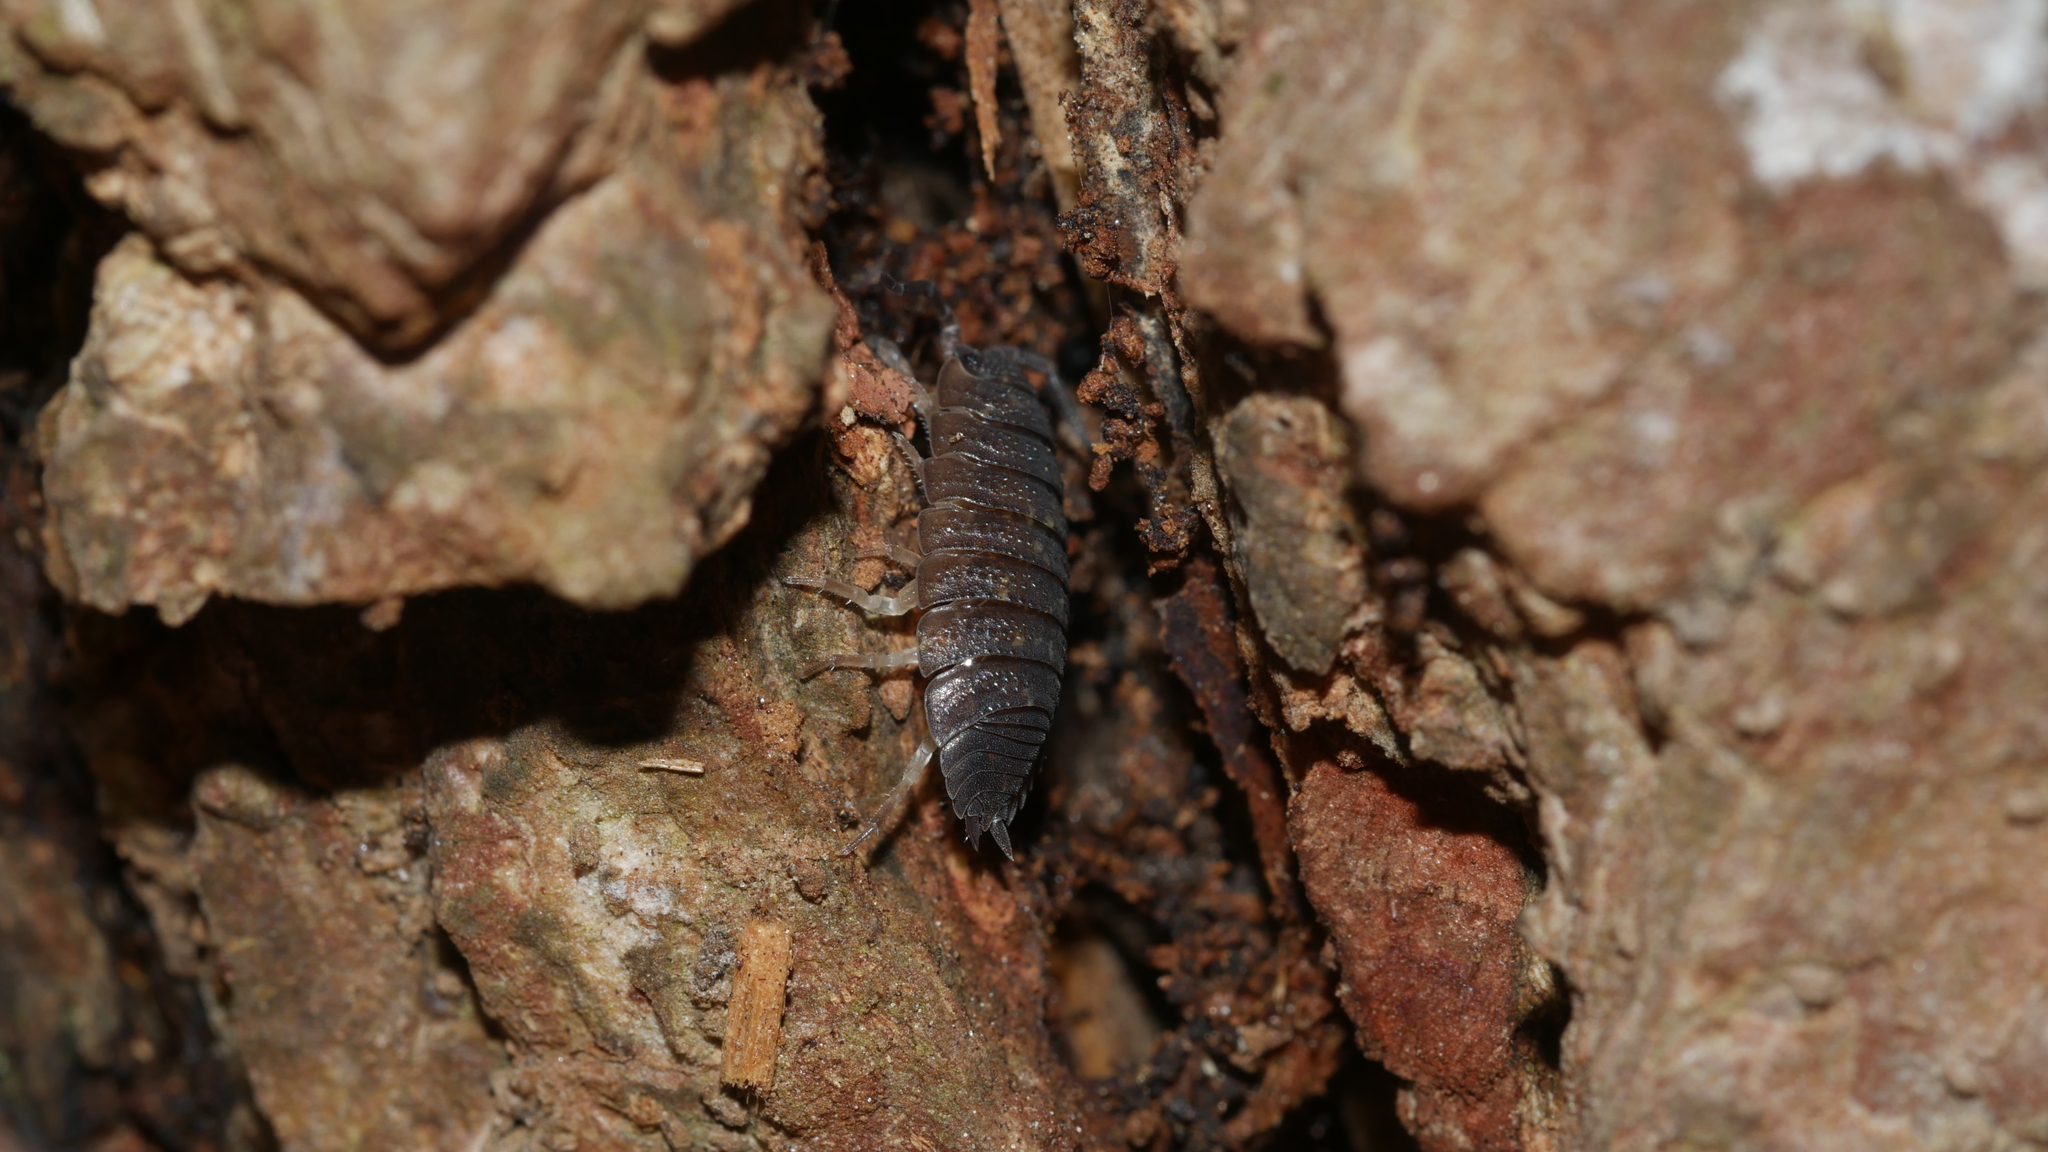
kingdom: Animalia
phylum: Arthropoda
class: Malacostraca
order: Isopoda
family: Porcellionidae
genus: Porcellio
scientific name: Porcellio scaber
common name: Common rough woodlouse
